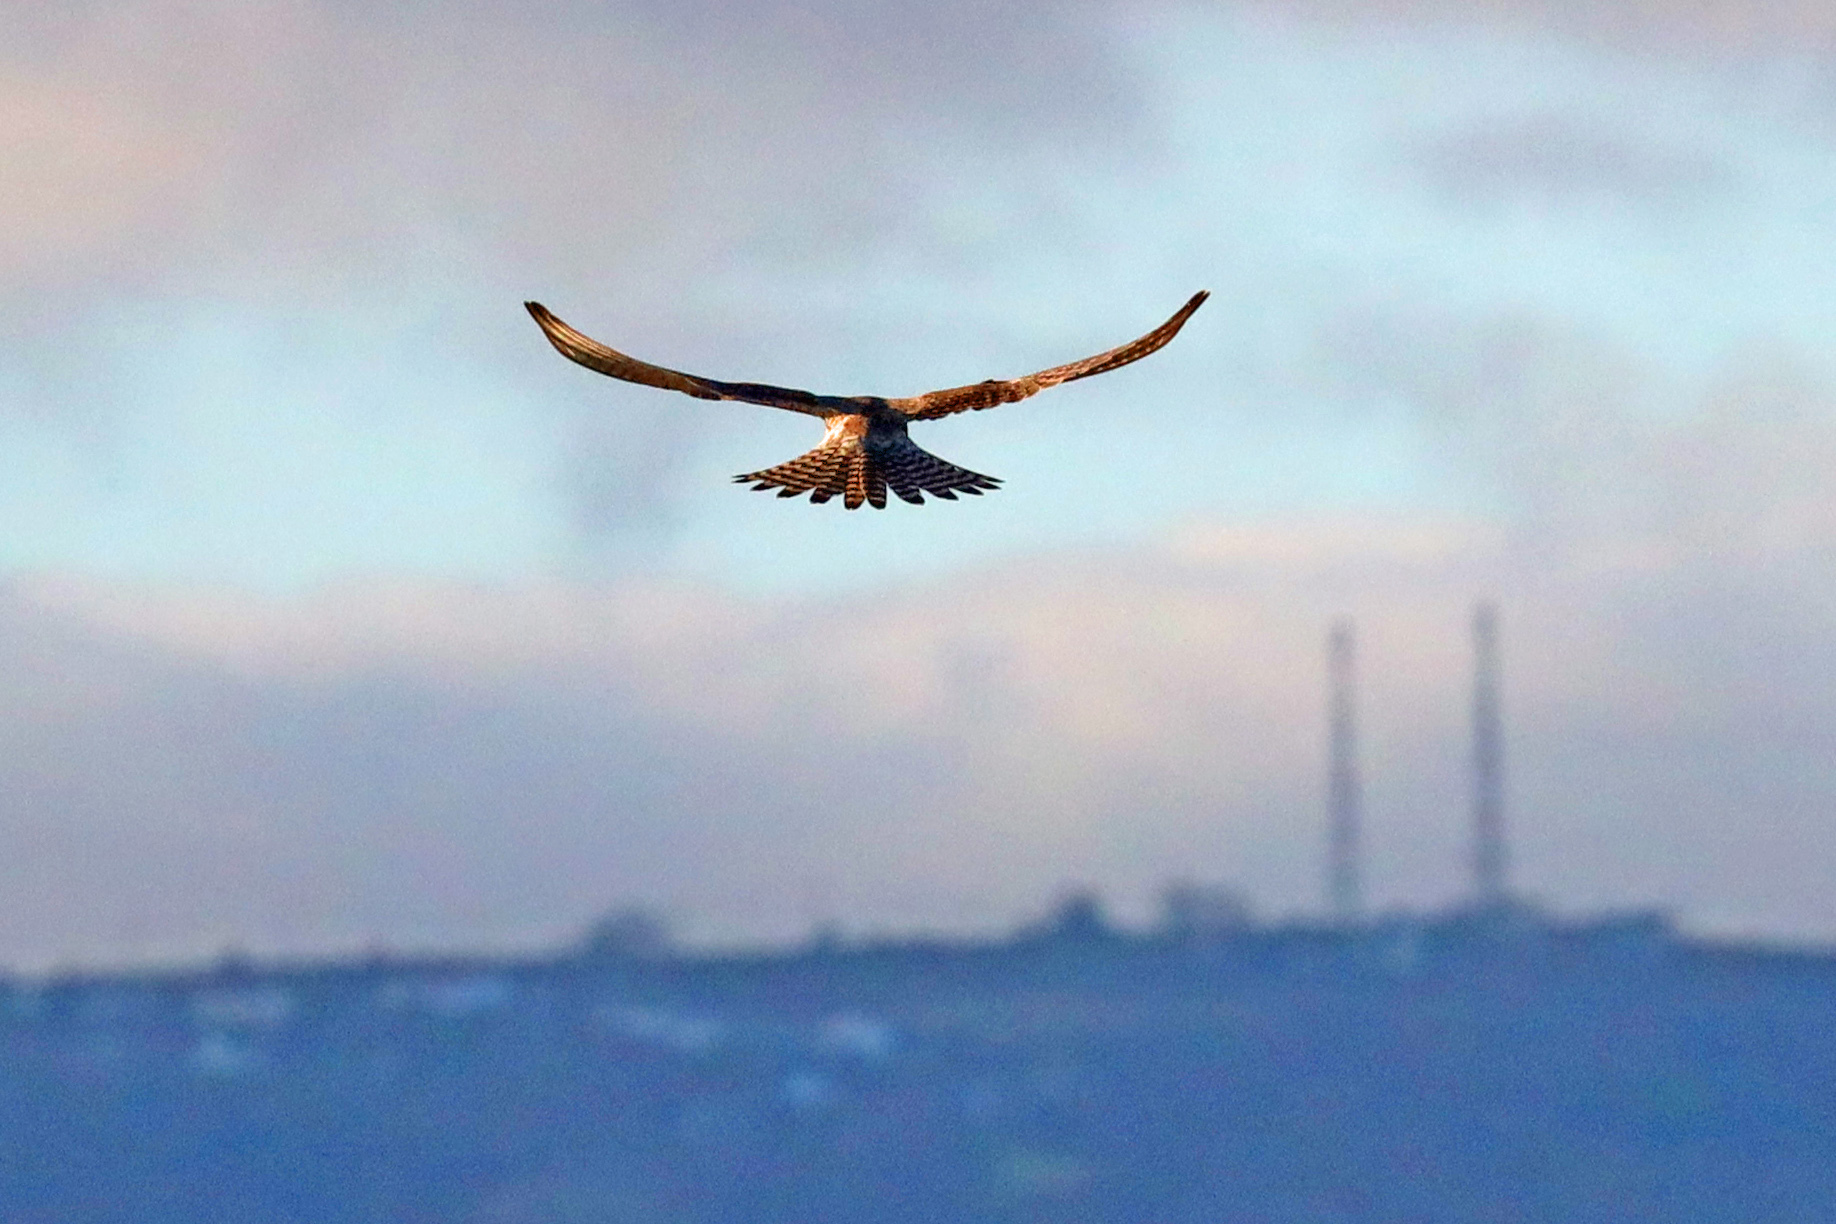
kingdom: Animalia
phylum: Chordata
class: Aves
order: Falconiformes
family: Falconidae
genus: Falco
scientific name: Falco tinnunculus
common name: Common kestrel
